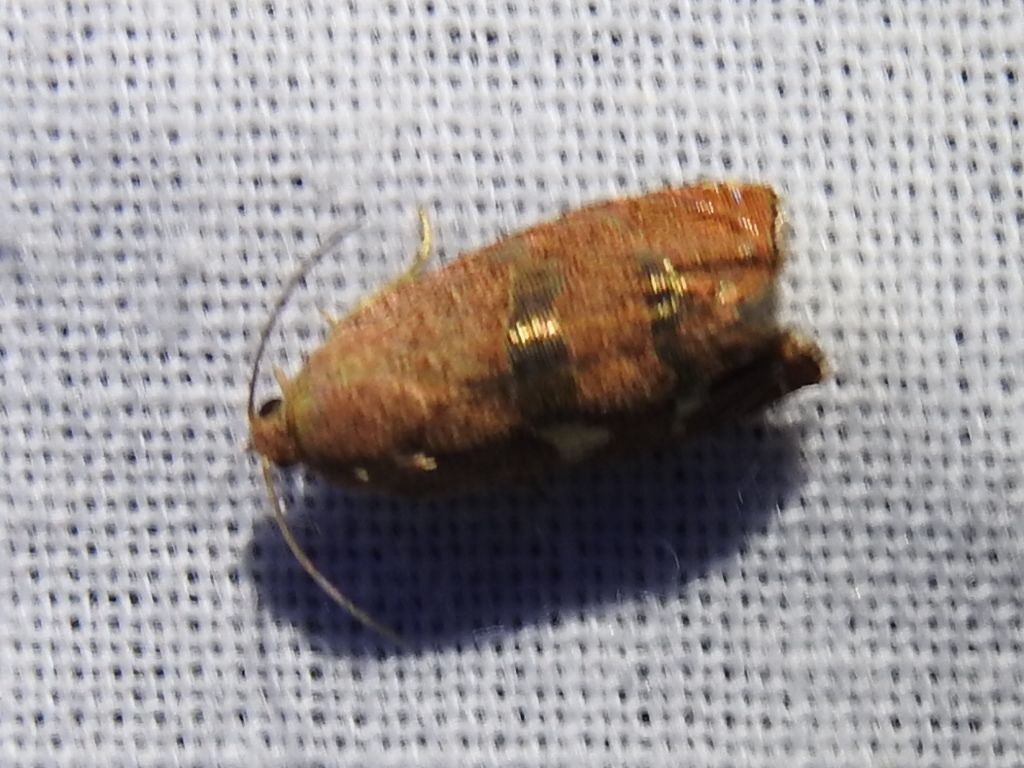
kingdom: Animalia
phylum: Arthropoda
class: Insecta
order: Lepidoptera
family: Tortricidae
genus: Cydia
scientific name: Cydia latiferreana
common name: Filbertworm moth
